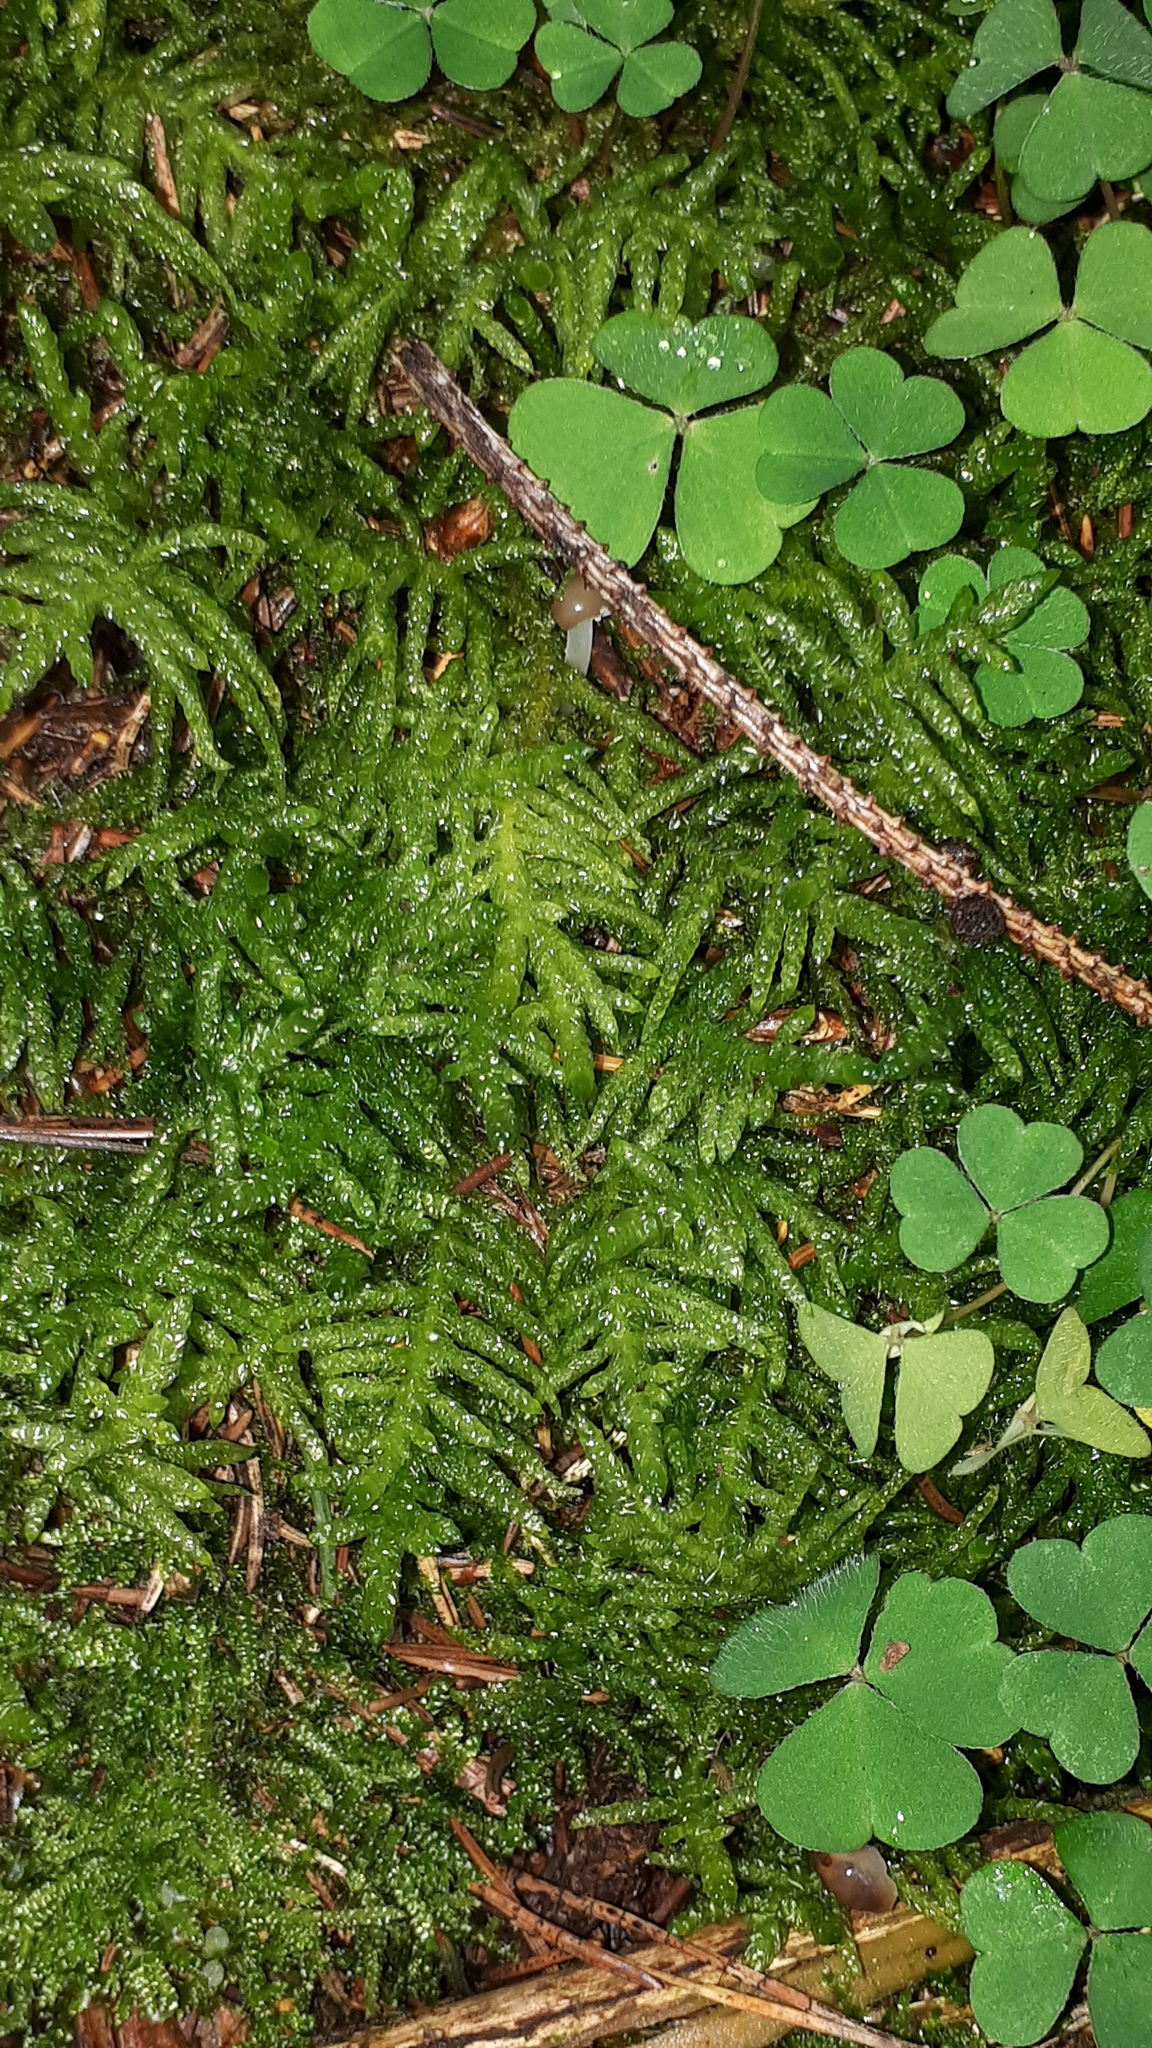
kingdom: Plantae
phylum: Bryophyta
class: Bryopsida
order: Hypnales
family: Brachytheciaceae
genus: Pseudoscleropodium
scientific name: Pseudoscleropodium purum
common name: Neat feather-moss
